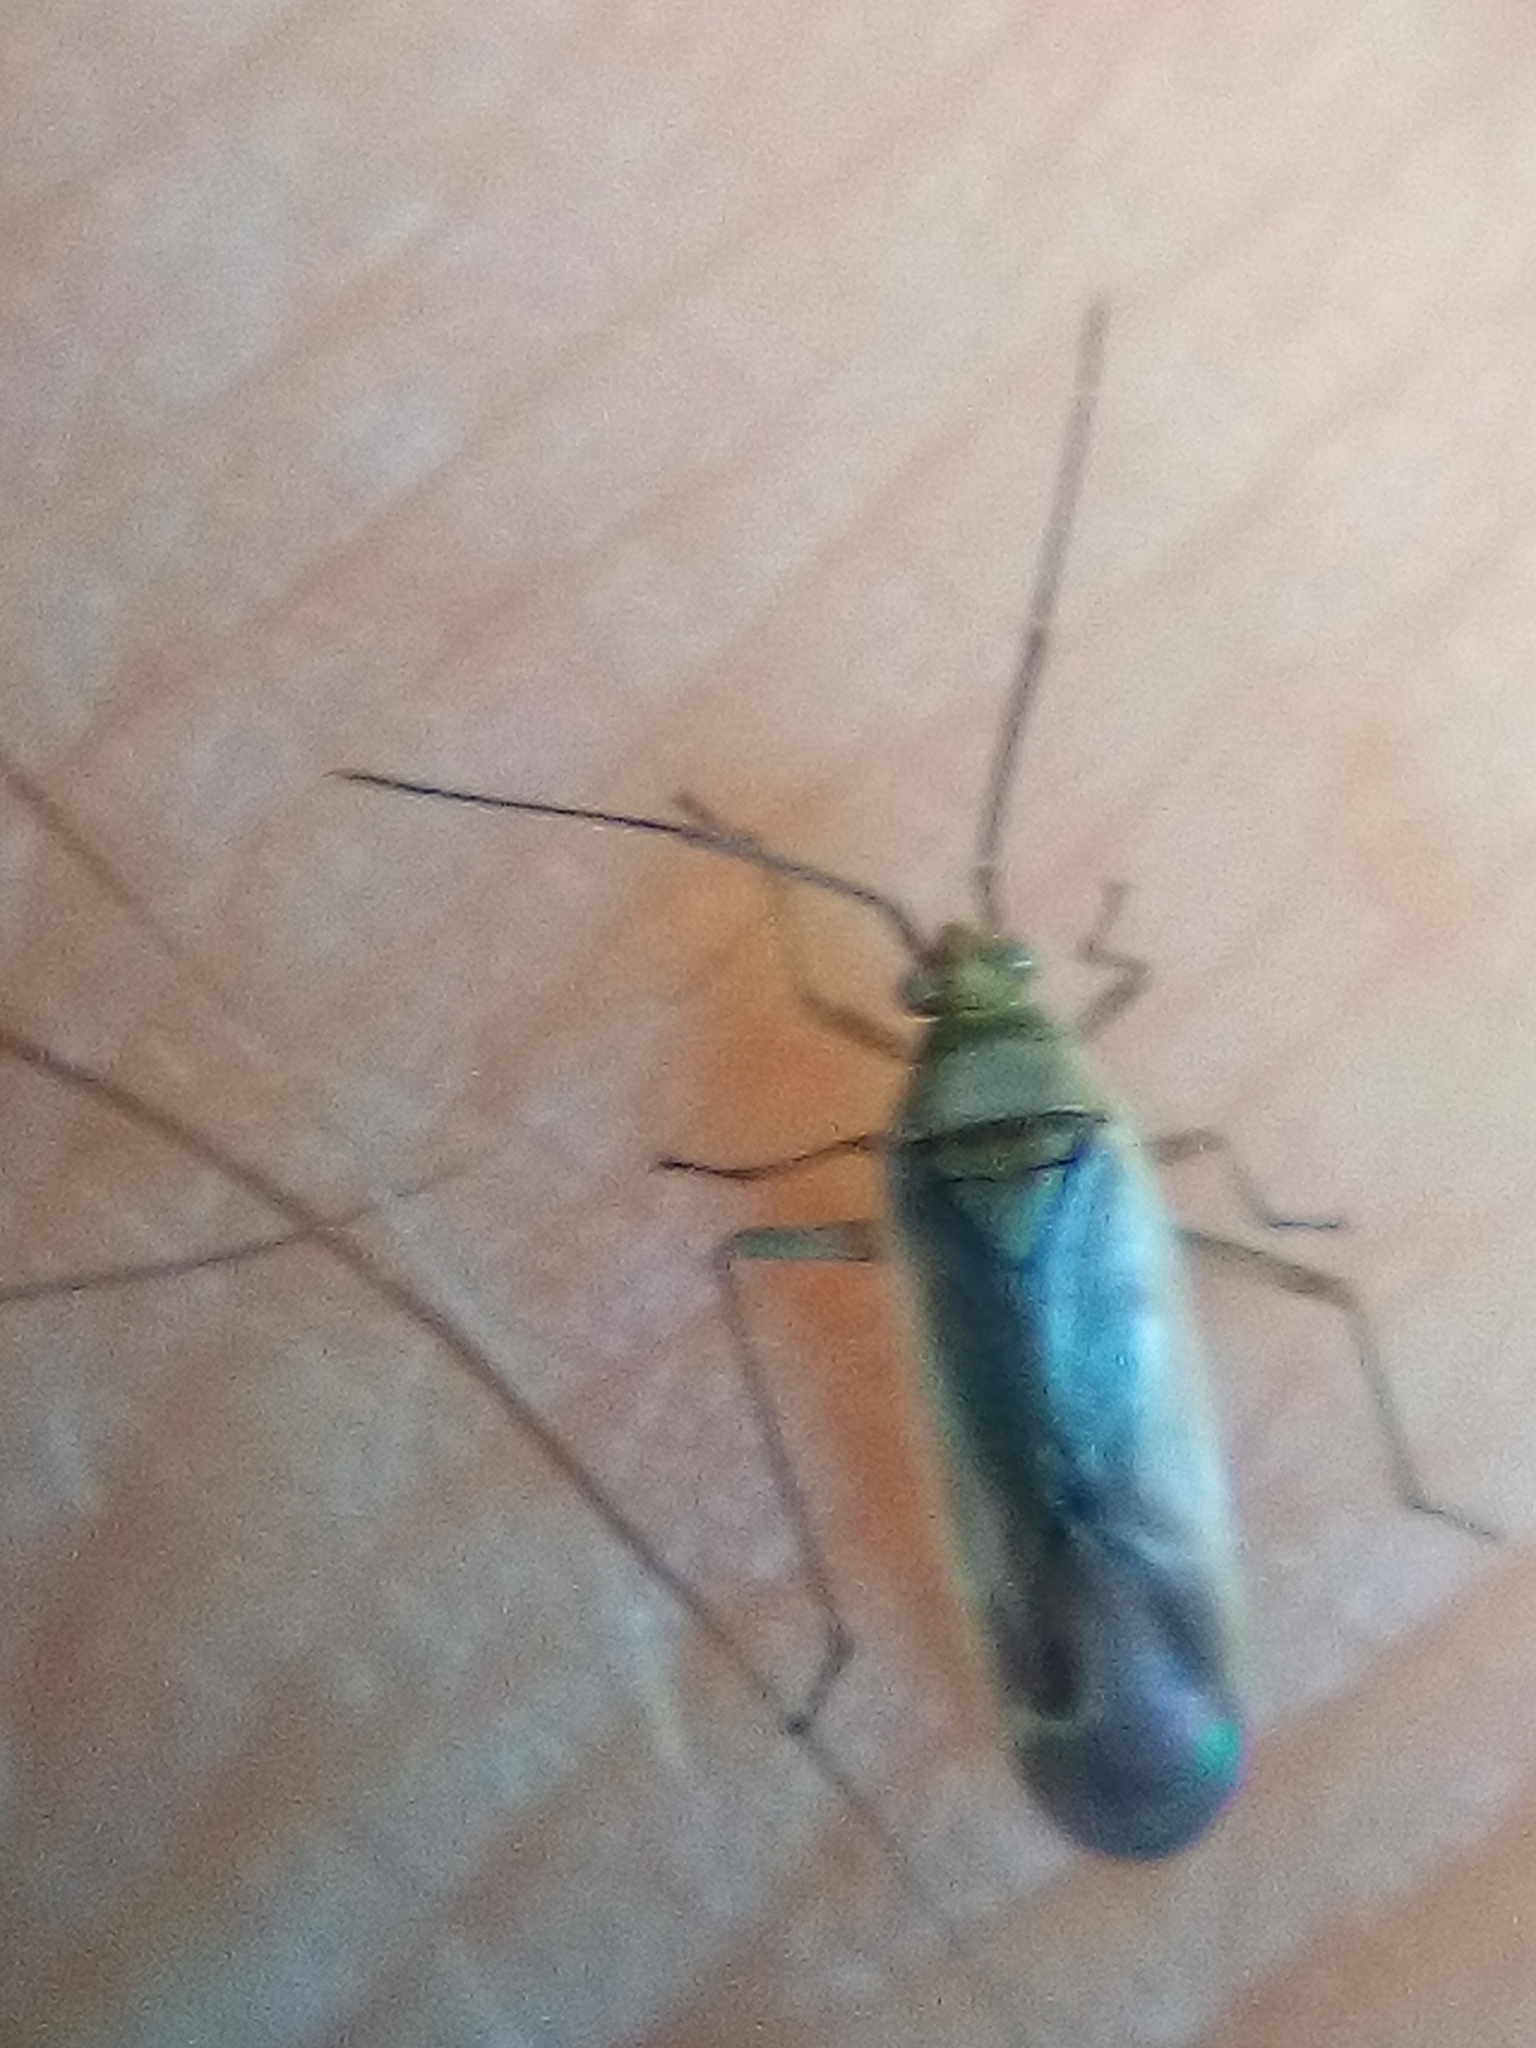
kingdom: Animalia
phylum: Arthropoda
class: Insecta
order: Hemiptera
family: Miridae
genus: Lopus
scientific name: Lopus decolor
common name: Plant bug
